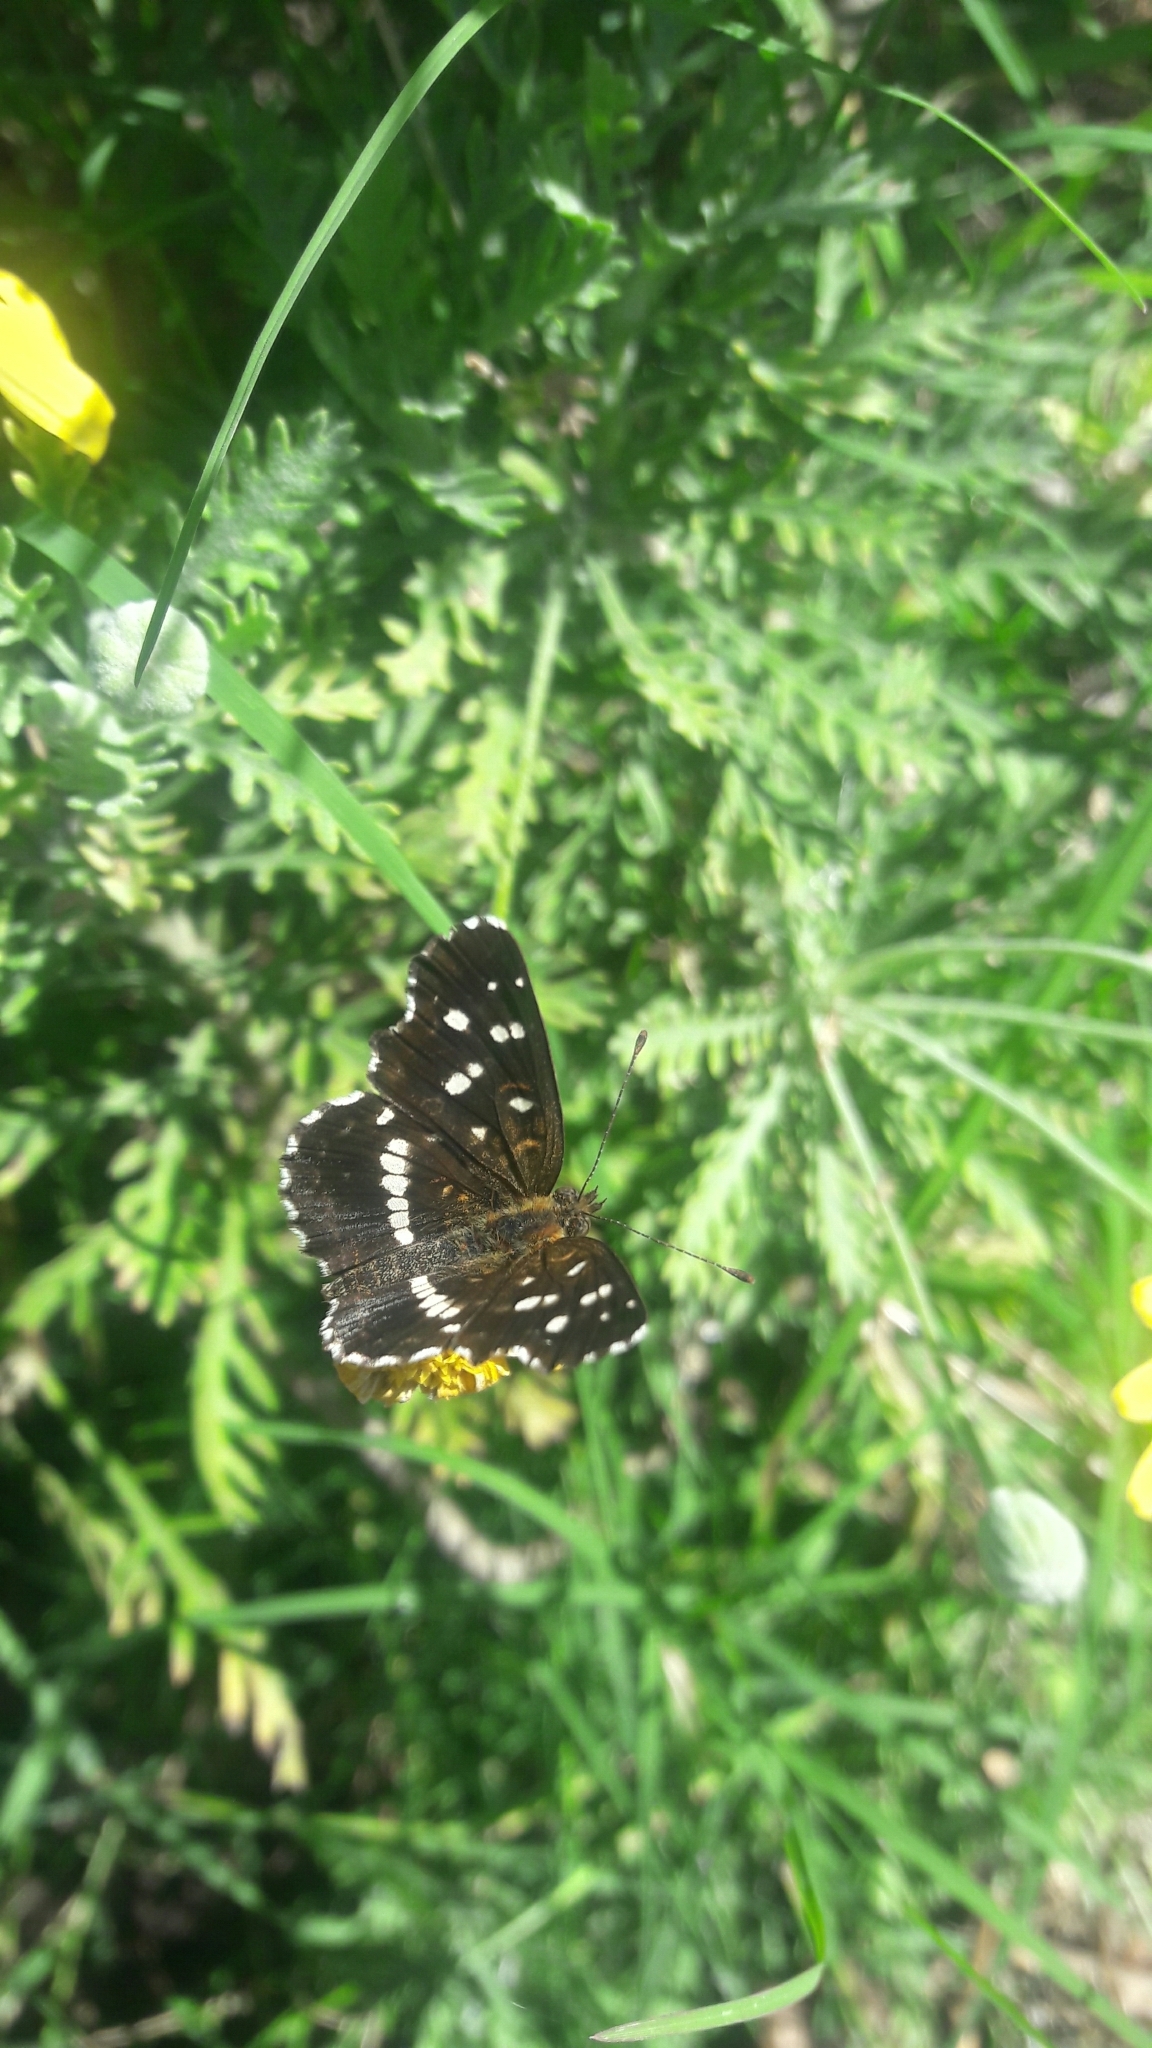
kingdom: Animalia
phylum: Arthropoda
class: Insecta
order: Lepidoptera
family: Nymphalidae
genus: Ortilia
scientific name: Ortilia ithra
